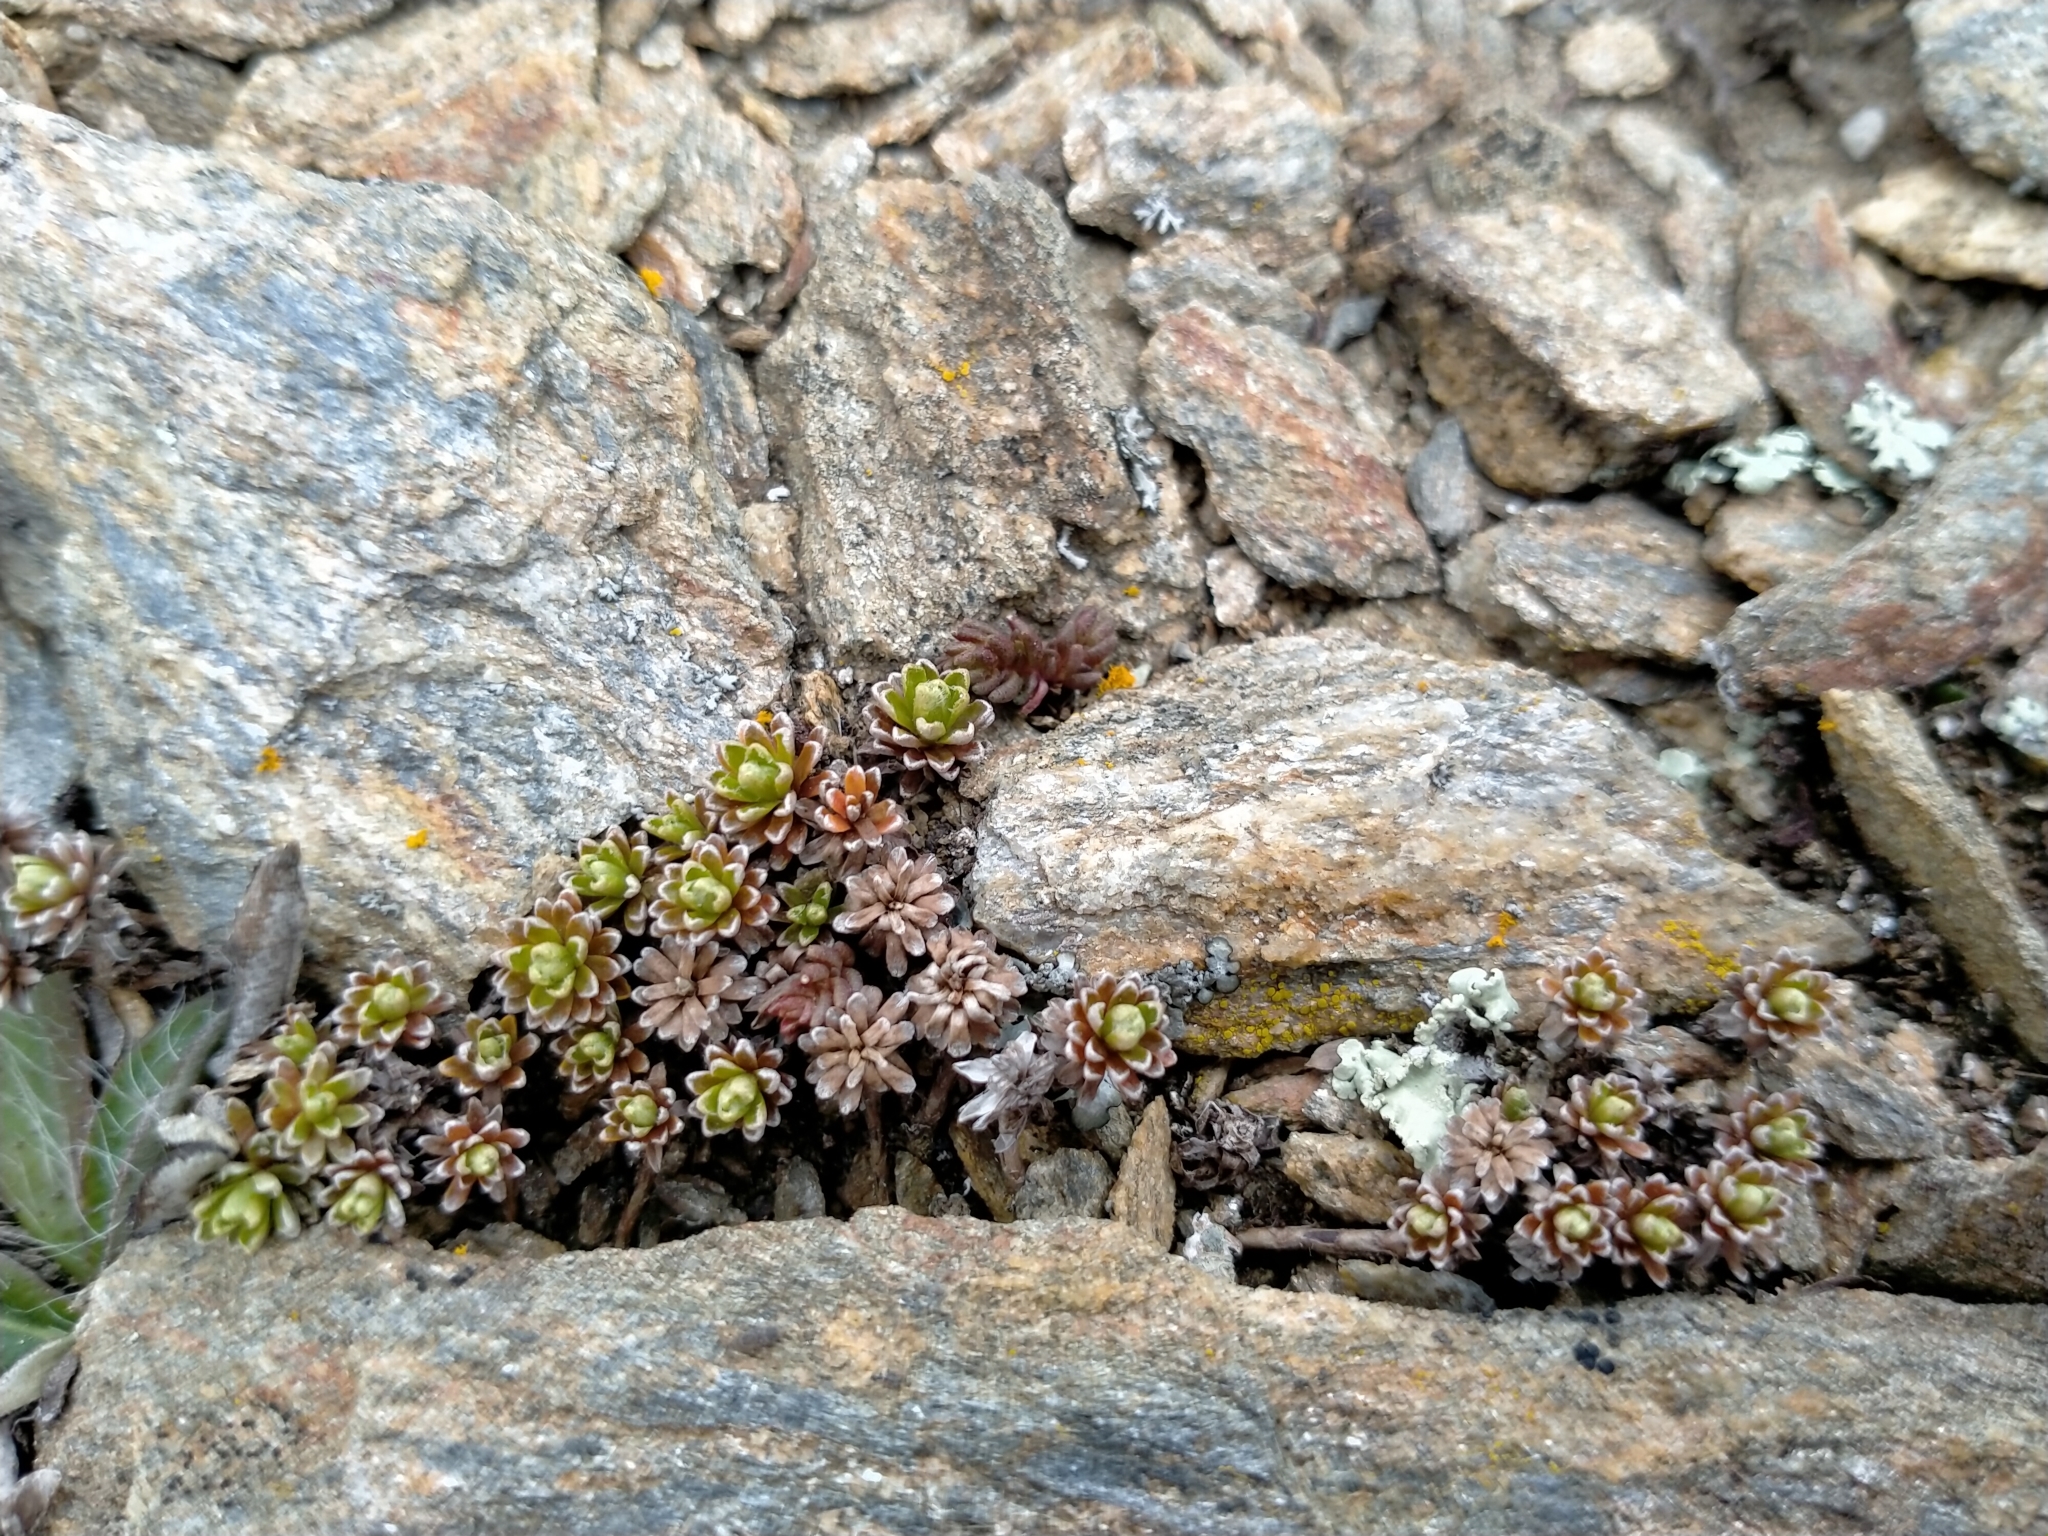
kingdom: Plantae
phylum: Tracheophyta
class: Magnoliopsida
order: Asterales
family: Asteraceae
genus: Raoulia
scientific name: Raoulia subsericea
